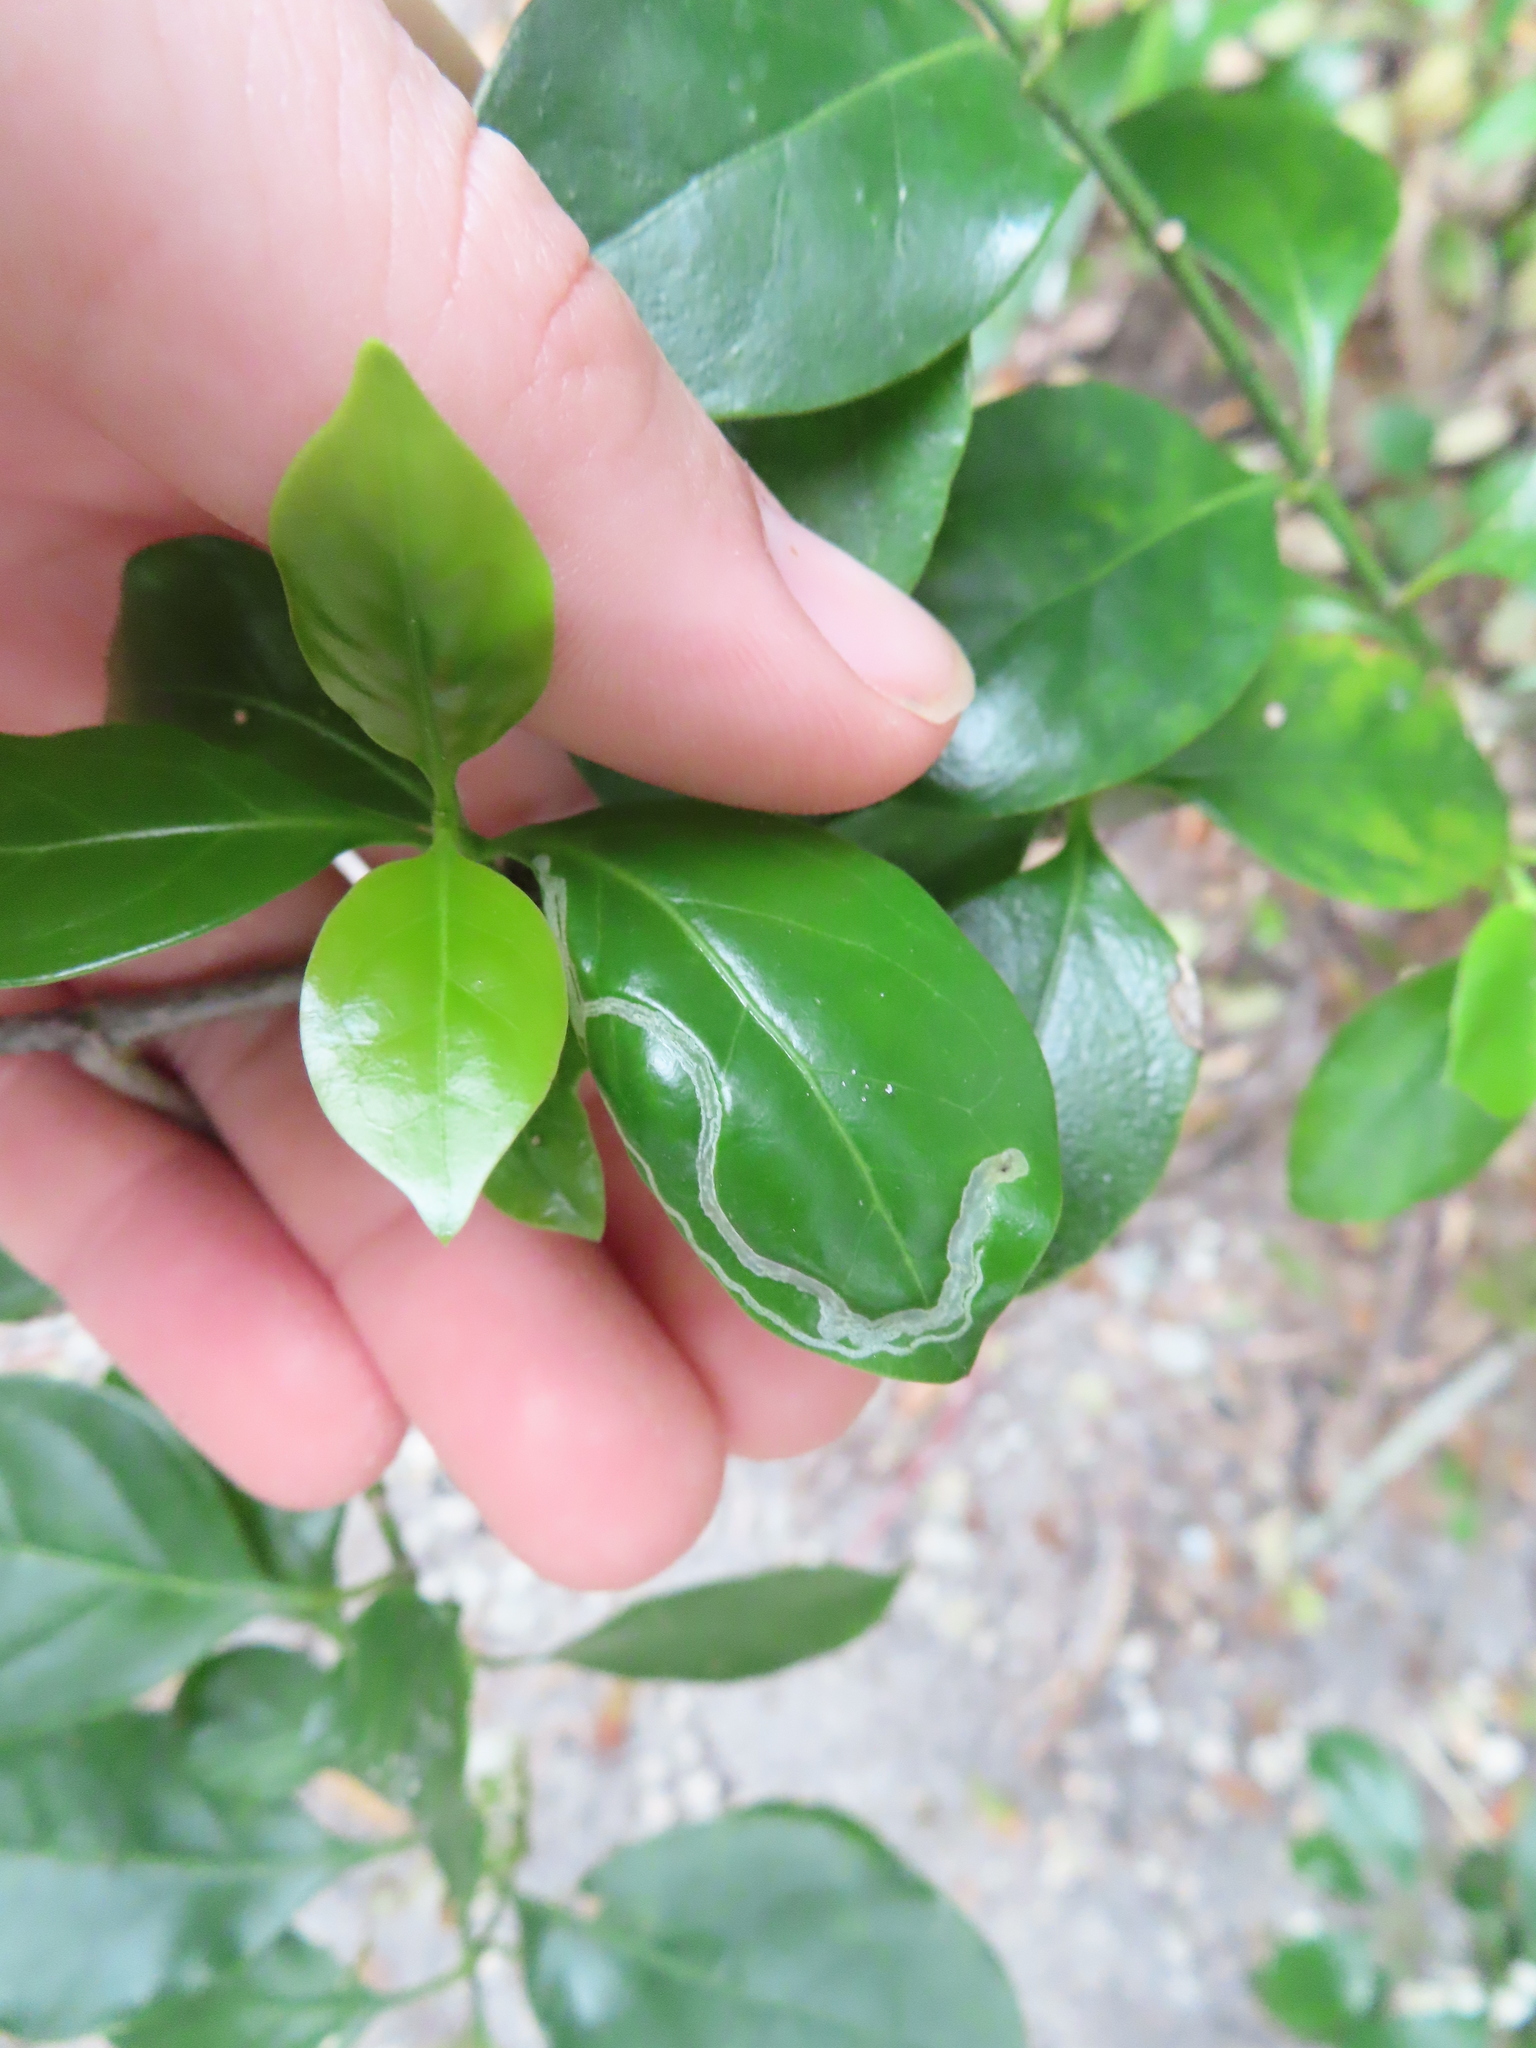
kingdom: Animalia
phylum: Arthropoda
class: Insecta
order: Diptera
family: Agromyzidae
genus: Liriomyza
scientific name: Liriomyza schmidti
